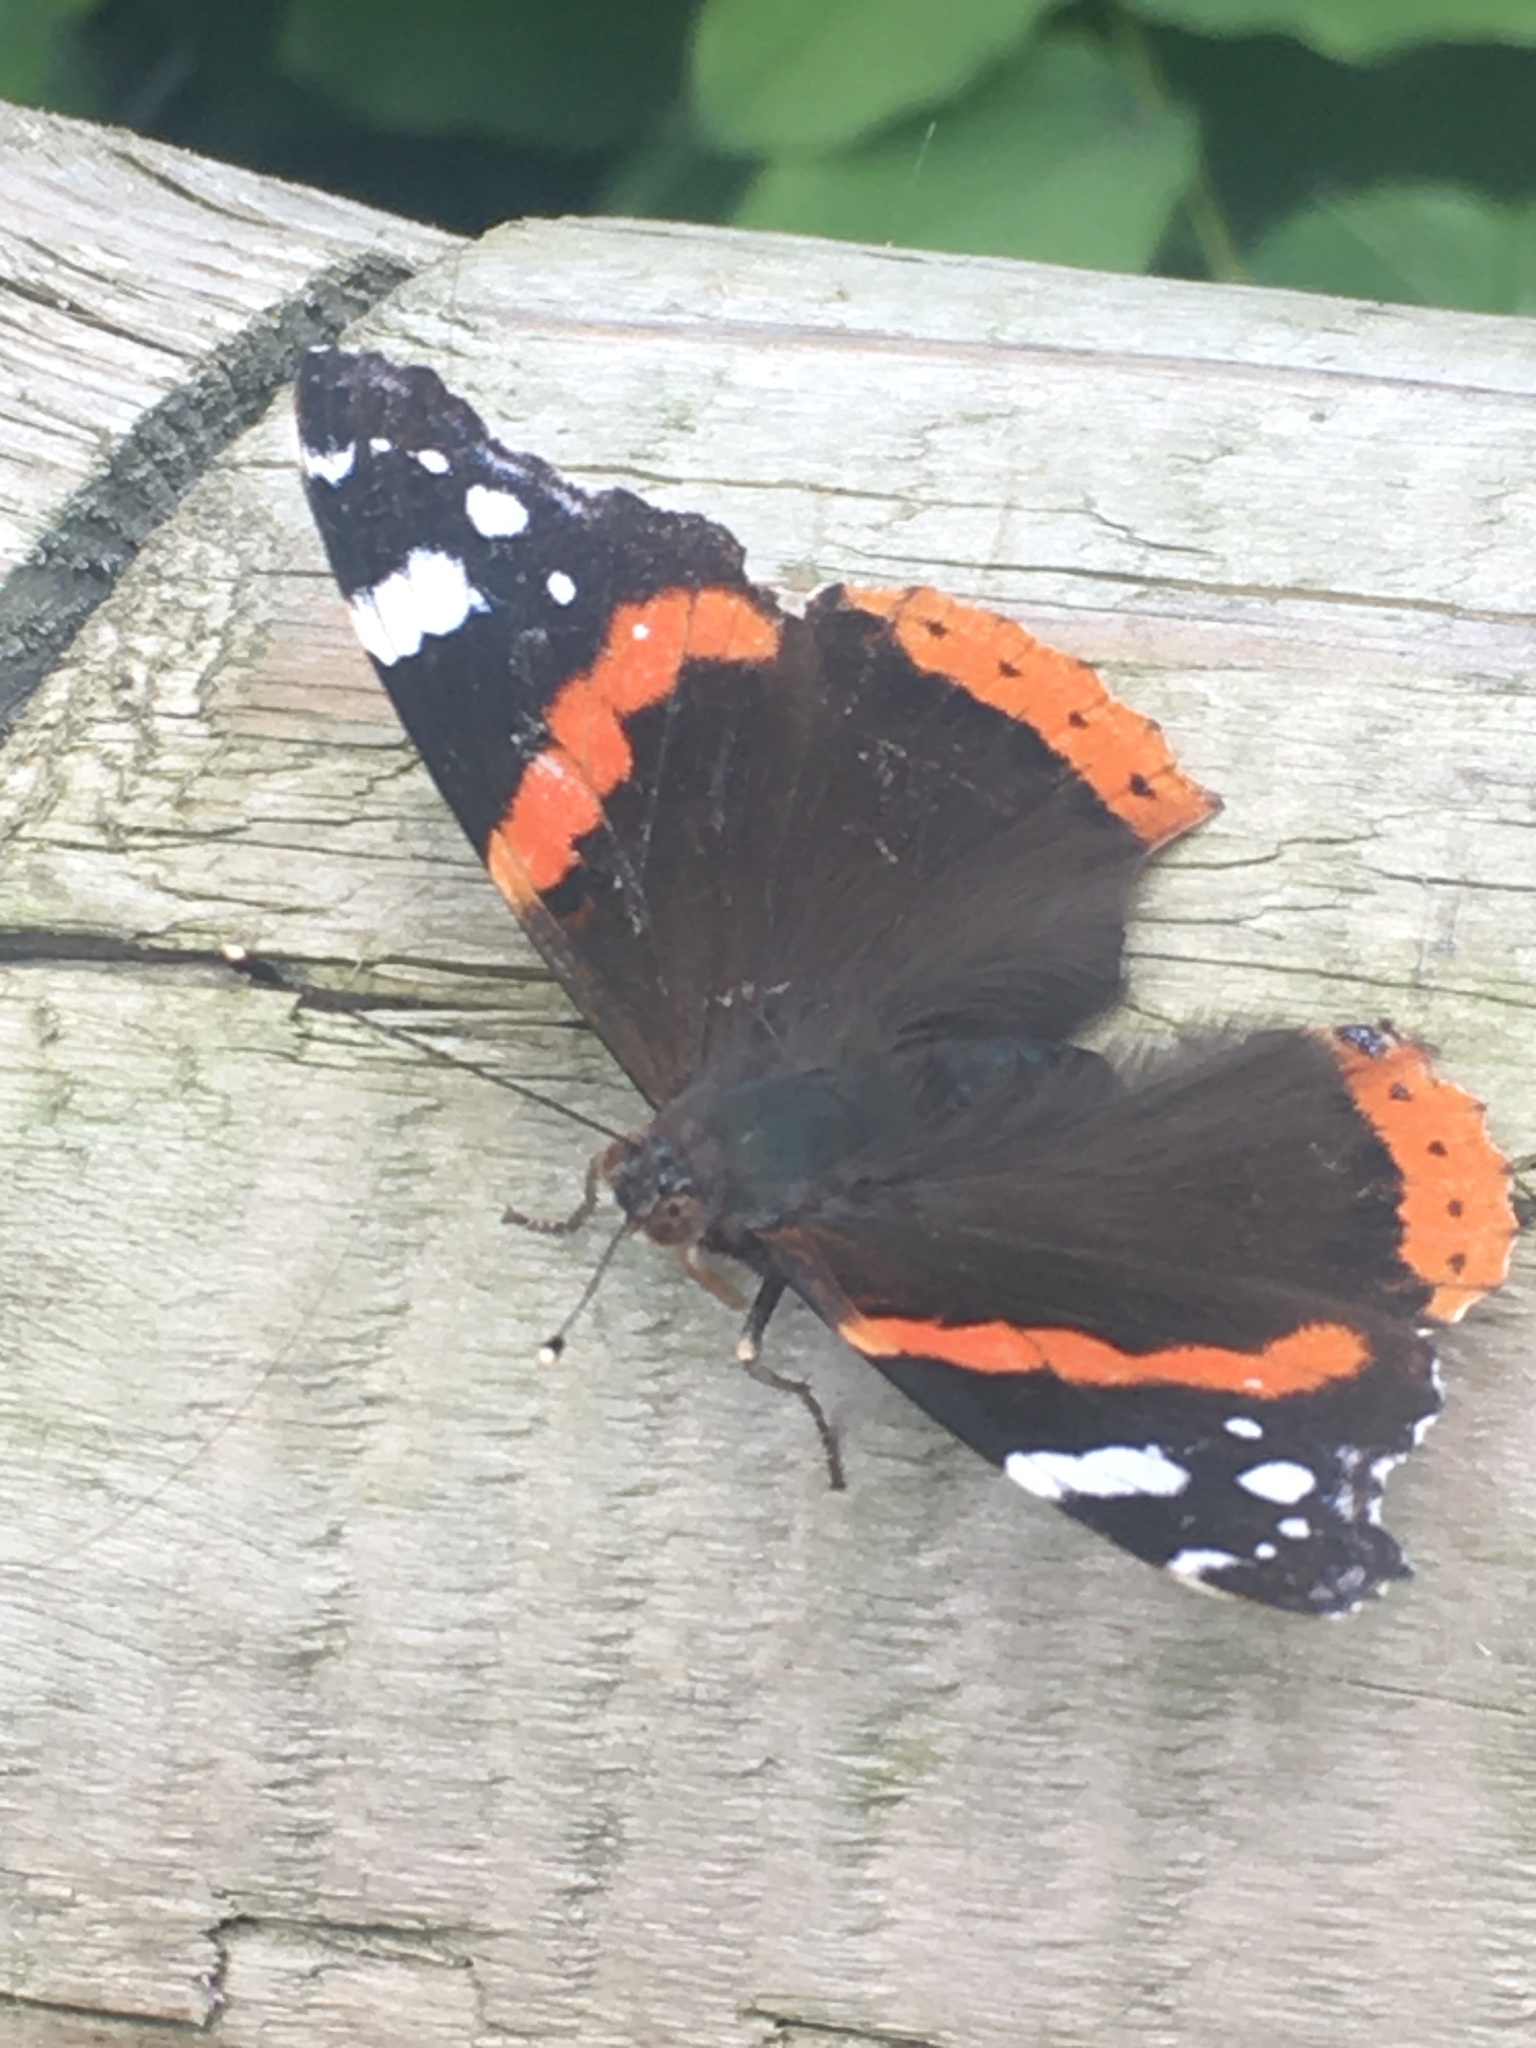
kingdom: Animalia
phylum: Arthropoda
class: Insecta
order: Lepidoptera
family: Nymphalidae
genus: Vanessa
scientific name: Vanessa atalanta
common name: Red admiral
